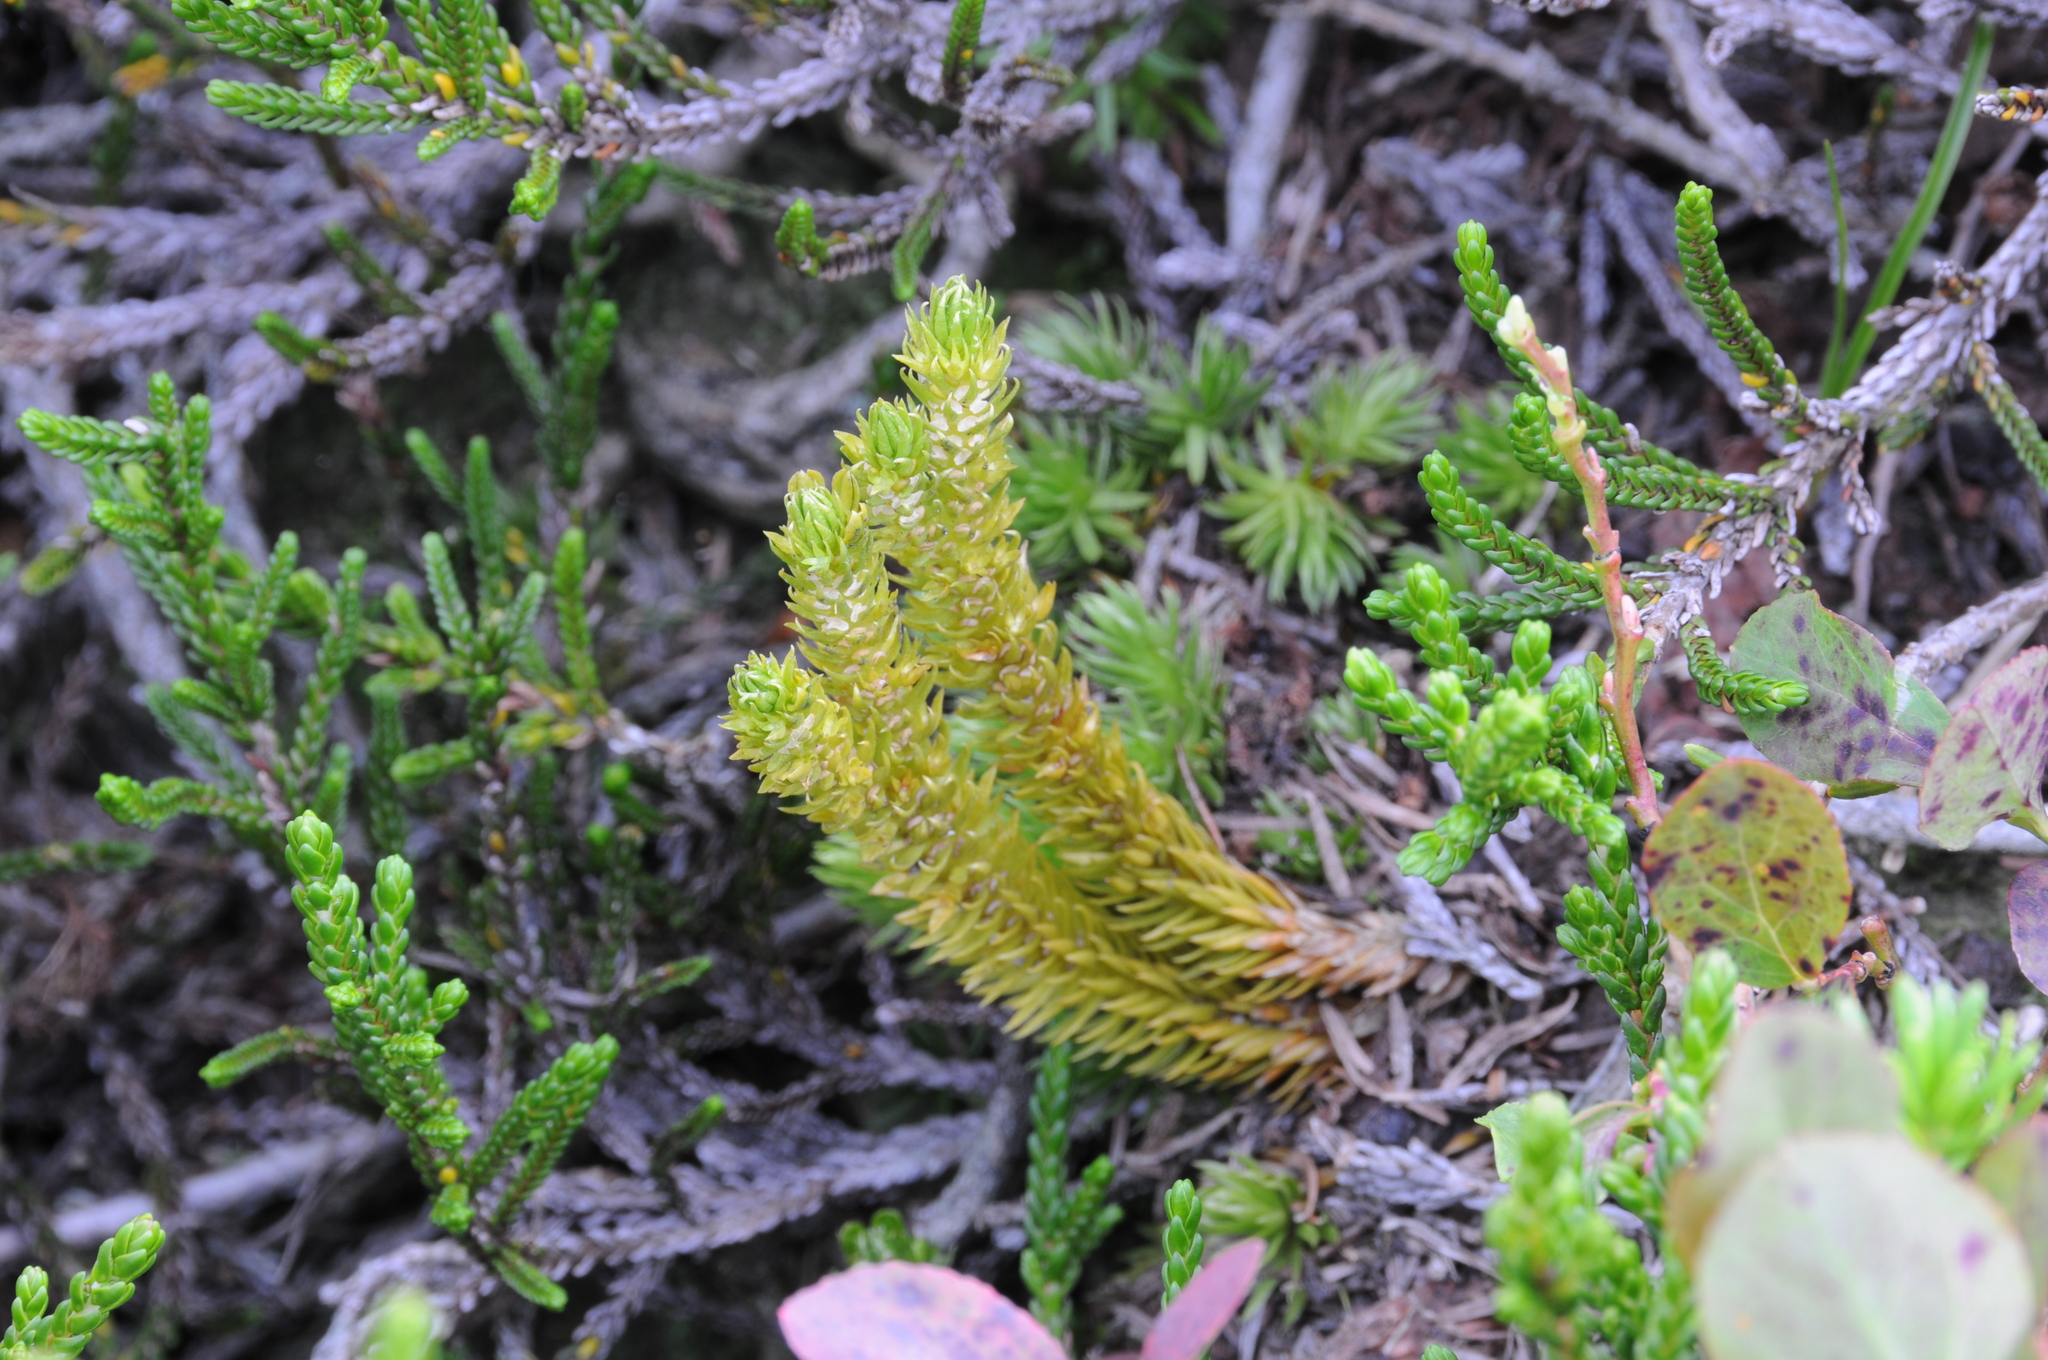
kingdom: Plantae
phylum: Tracheophyta
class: Lycopodiopsida
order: Lycopodiales
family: Lycopodiaceae
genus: Huperzia
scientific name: Huperzia continentalis
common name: Continental firmoss
